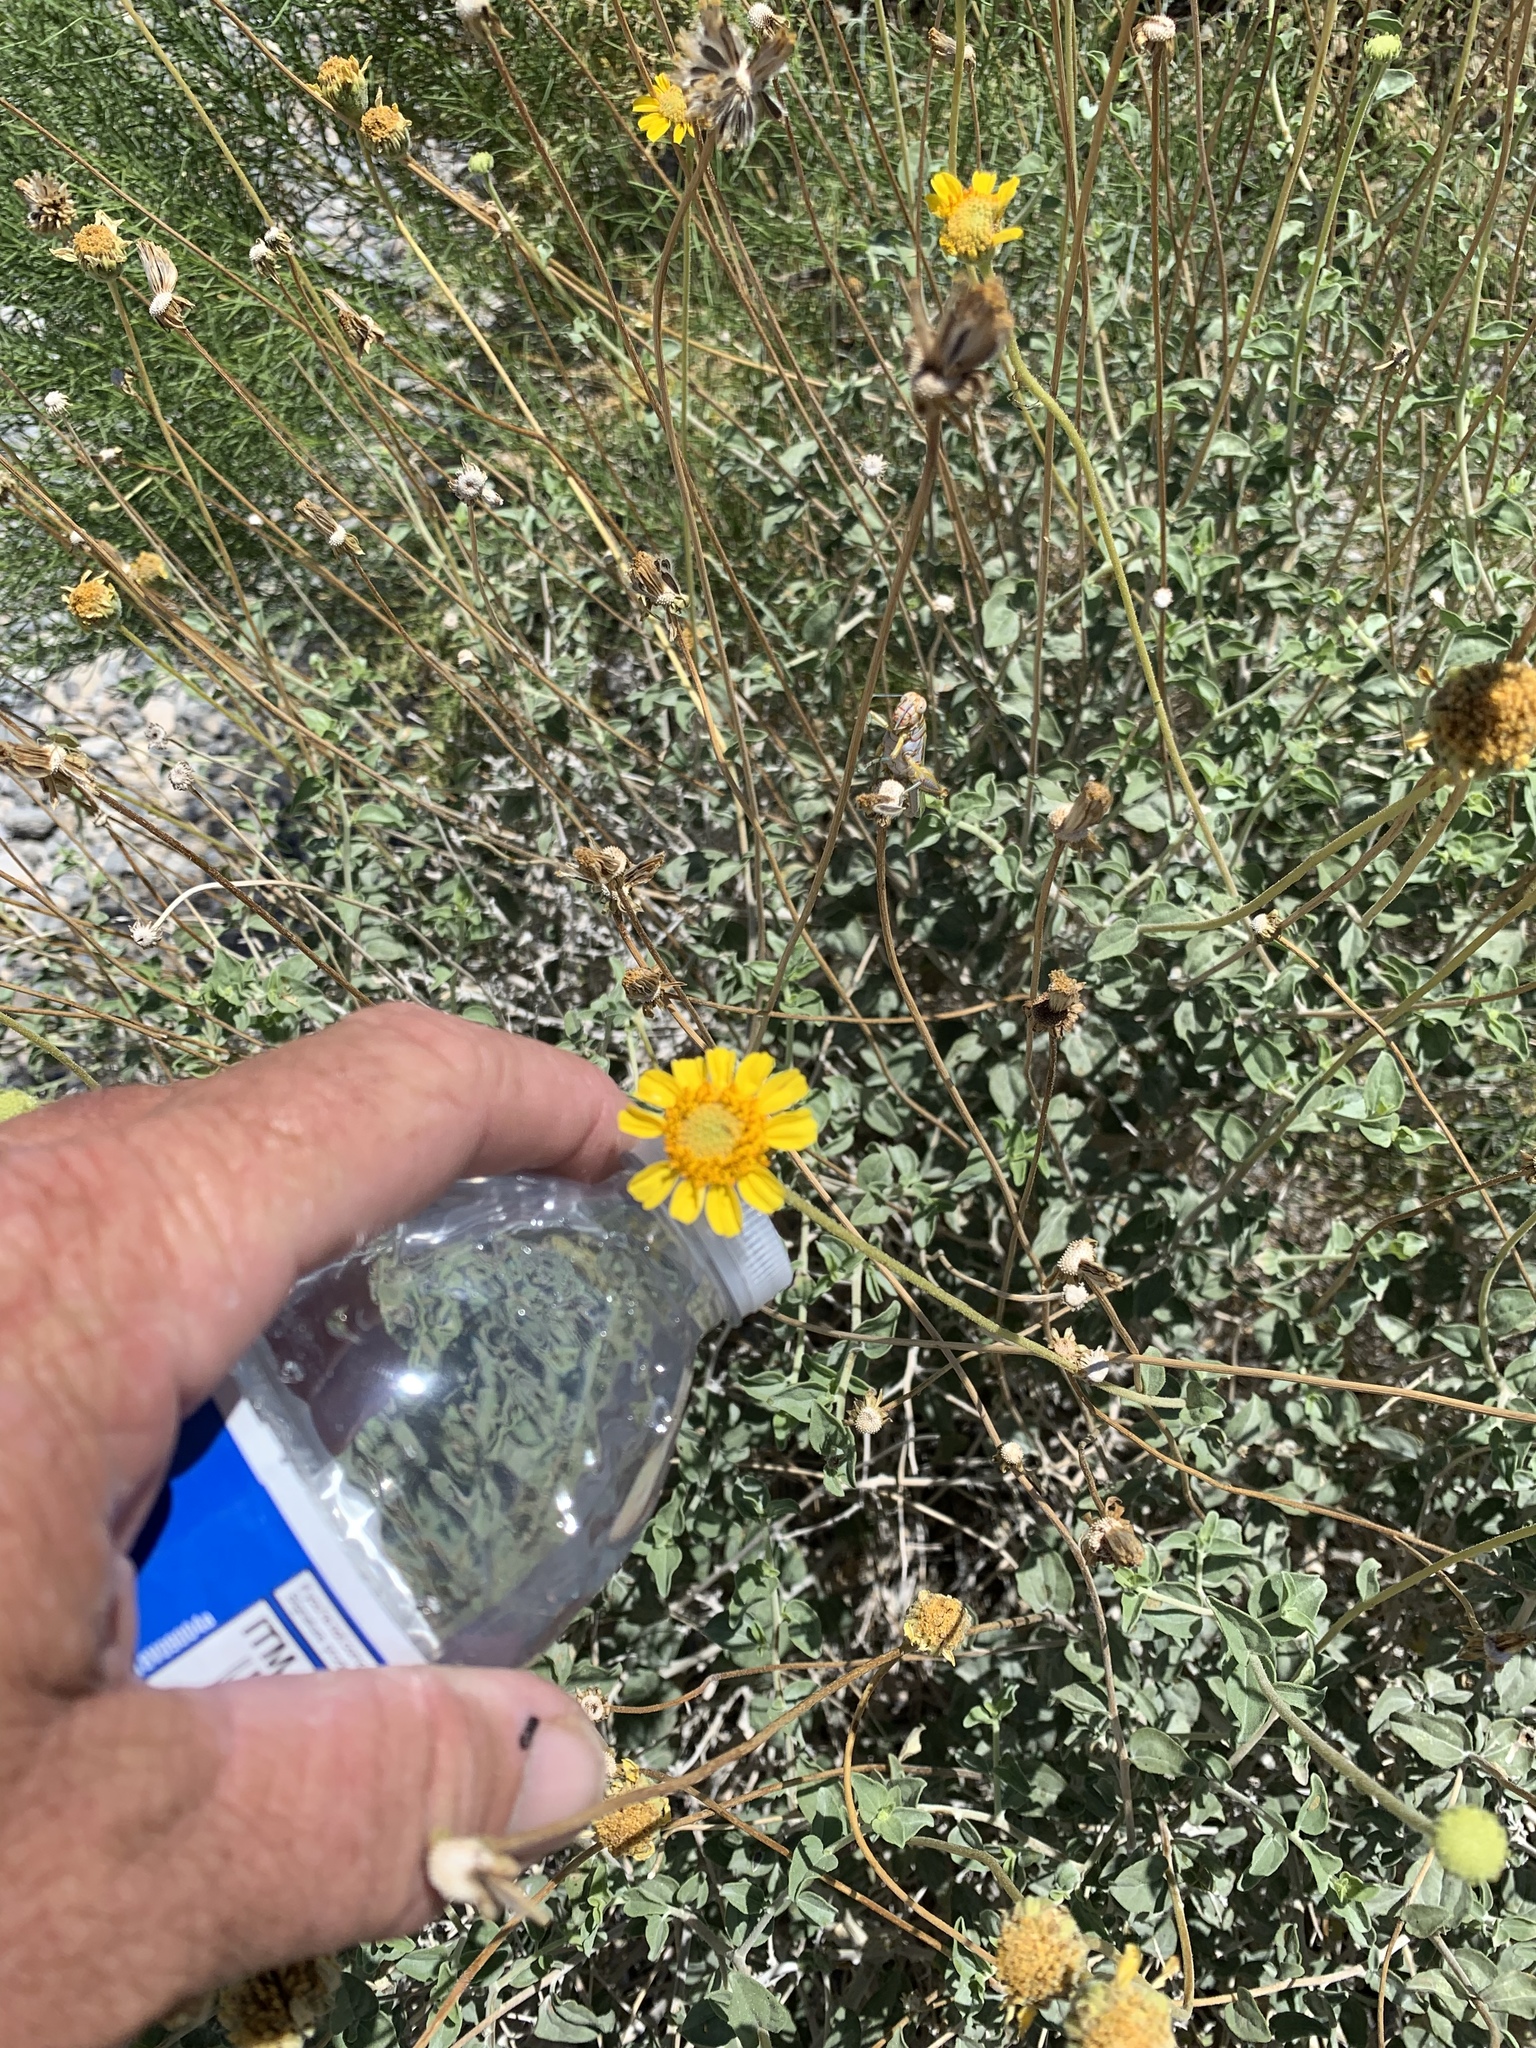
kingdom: Plantae
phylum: Tracheophyta
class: Magnoliopsida
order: Asterales
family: Asteraceae
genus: Bahiopsis
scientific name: Bahiopsis parishii
